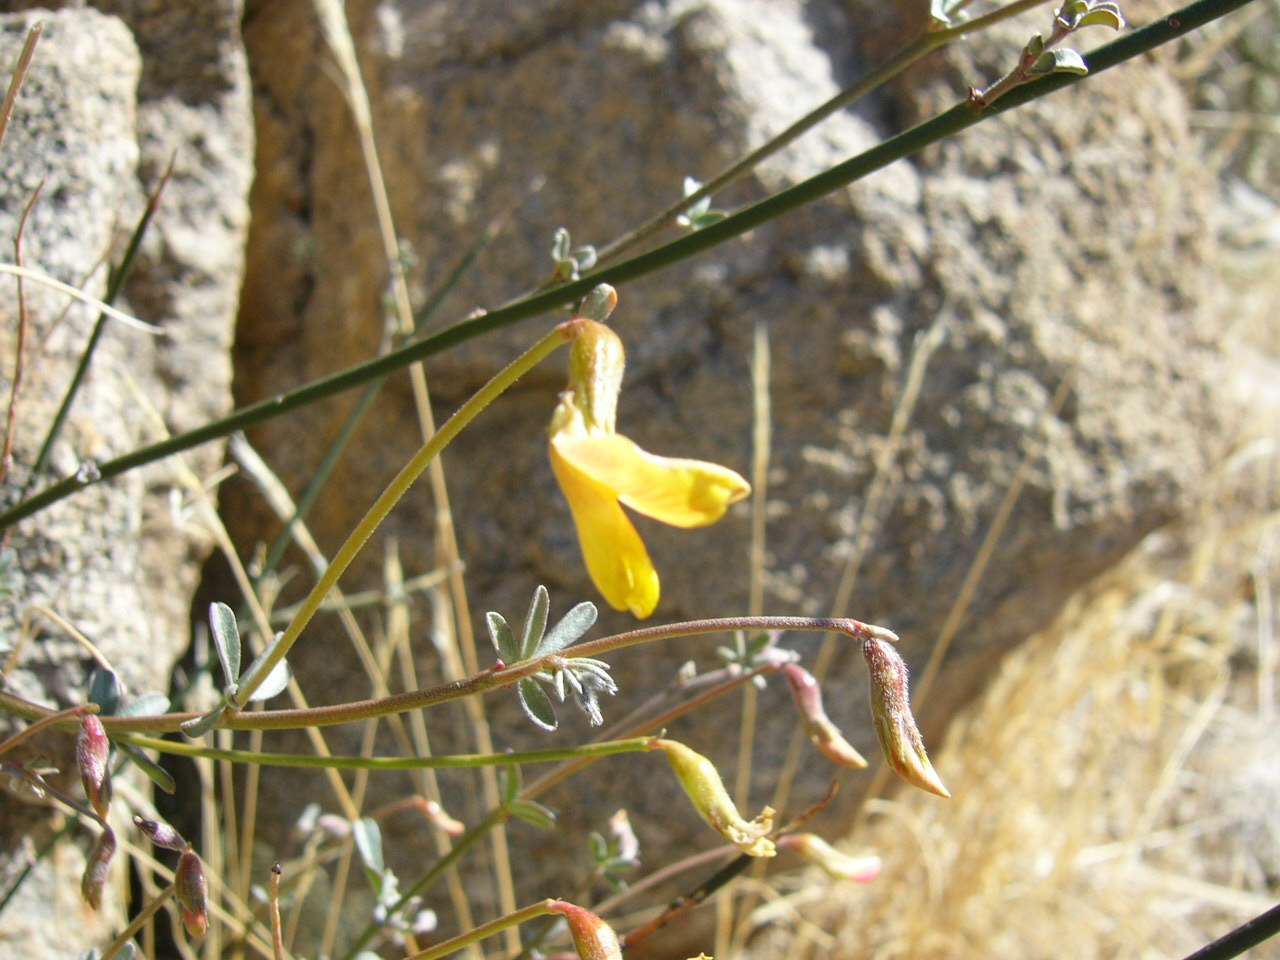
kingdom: Plantae
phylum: Tracheophyta
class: Magnoliopsida
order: Fabales
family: Fabaceae
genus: Acmispon
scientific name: Acmispon rigidus
